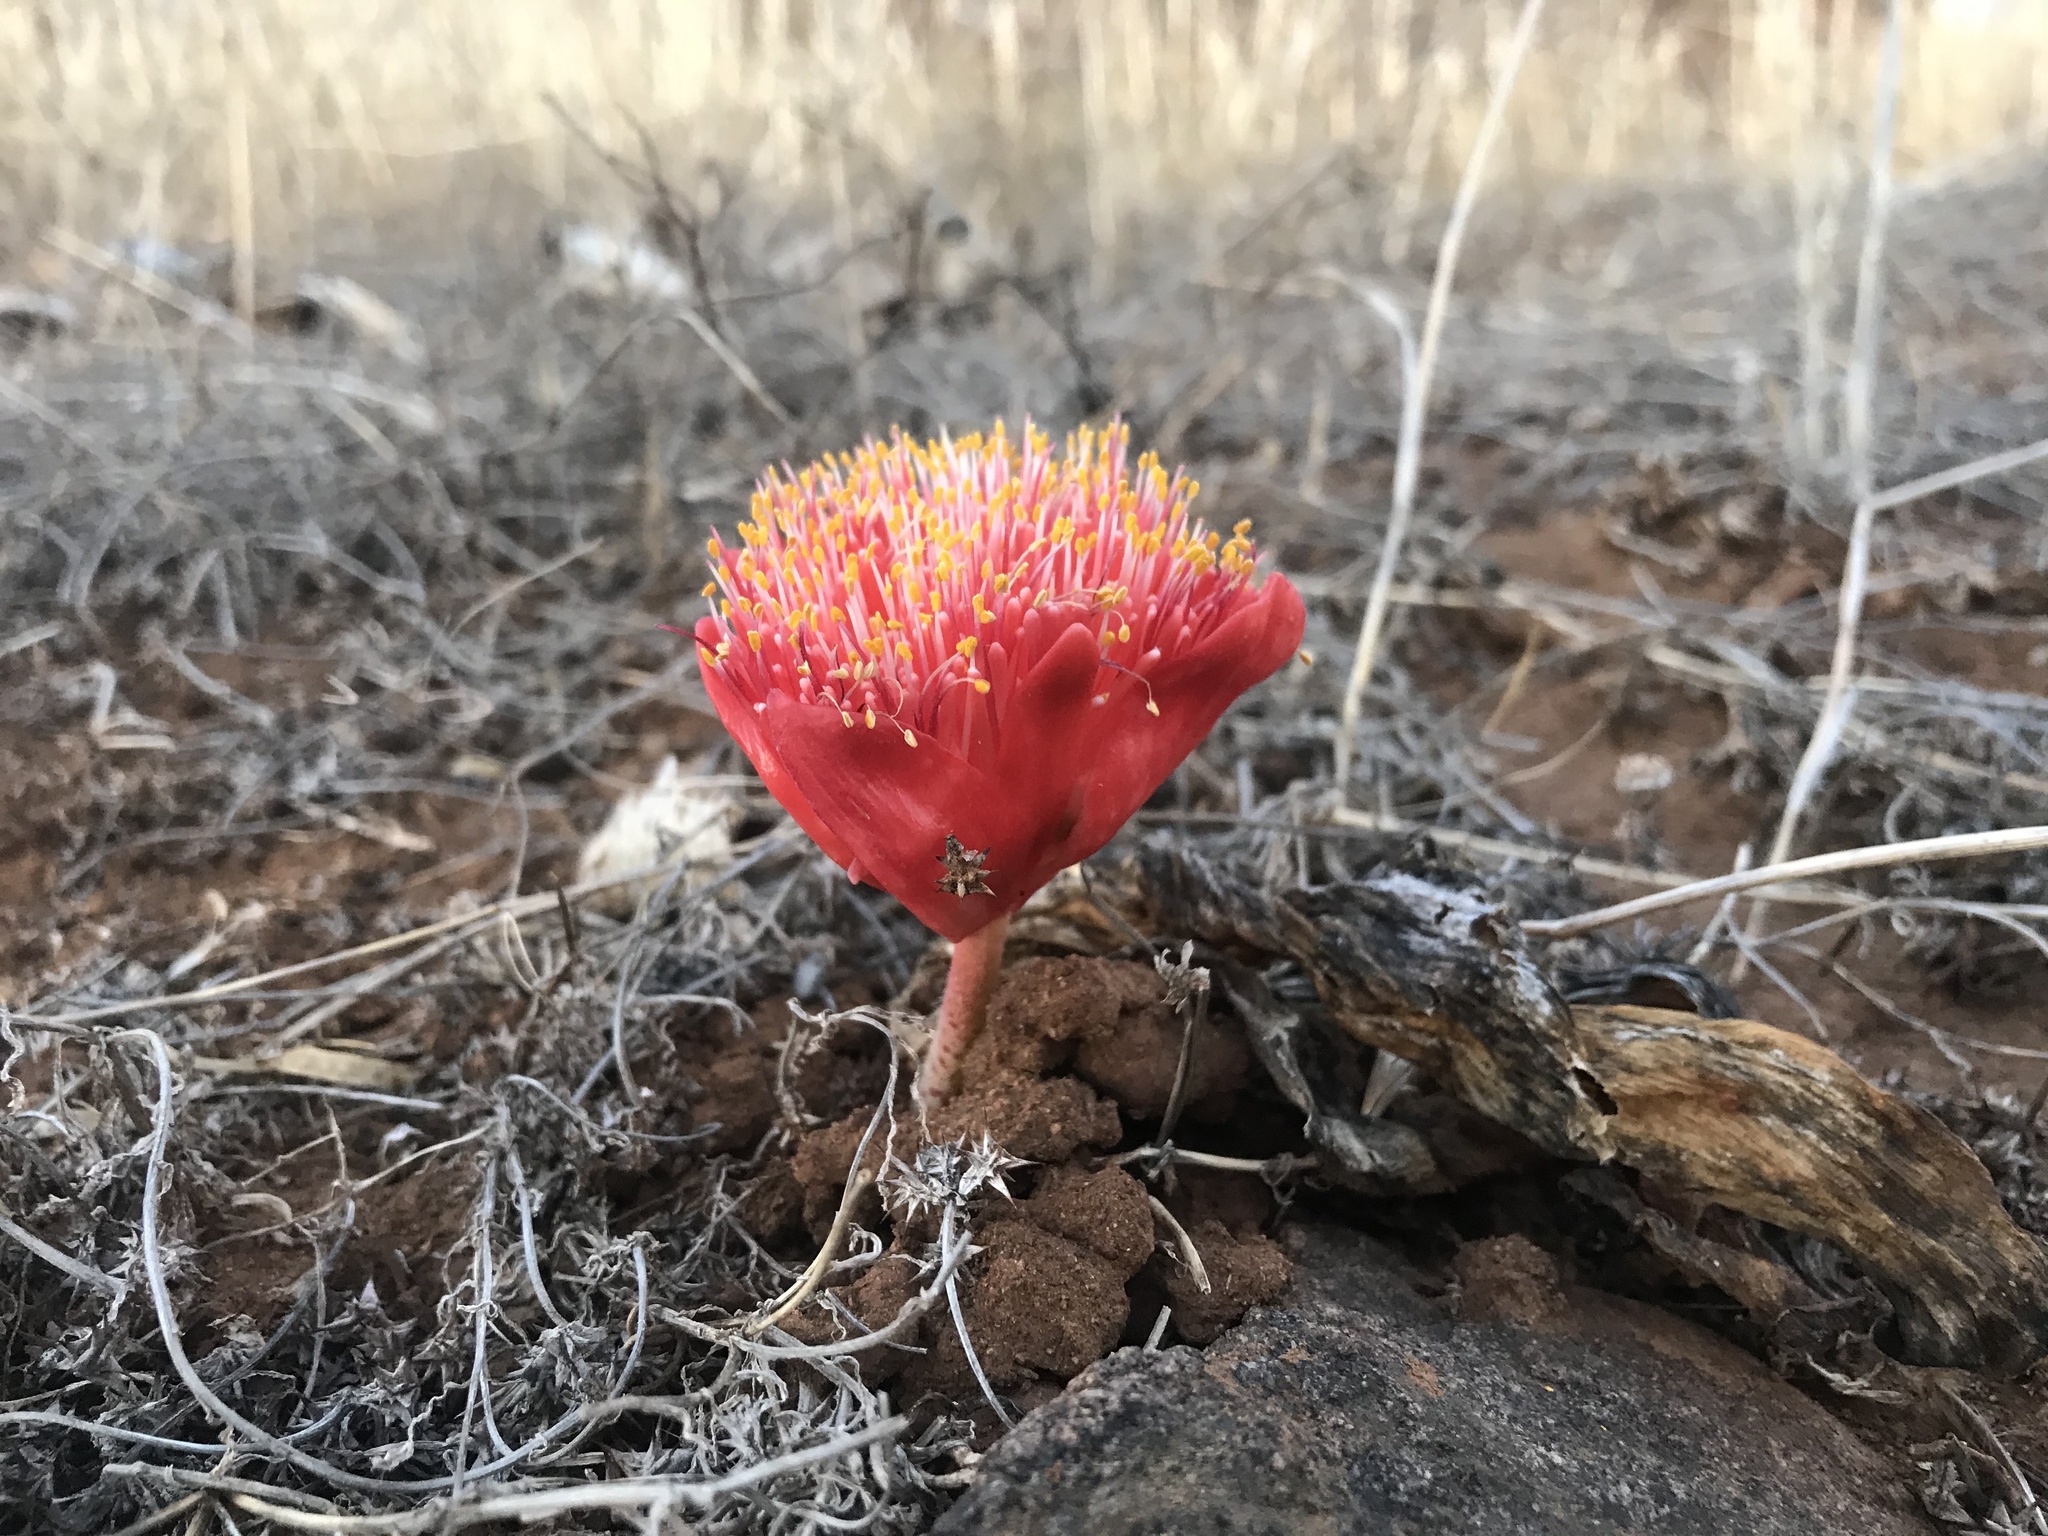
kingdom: Plantae
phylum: Tracheophyta
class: Liliopsida
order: Asparagales
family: Amaryllidaceae
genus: Haemanthus
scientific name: Haemanthus coccineus
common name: Cape-tulip
